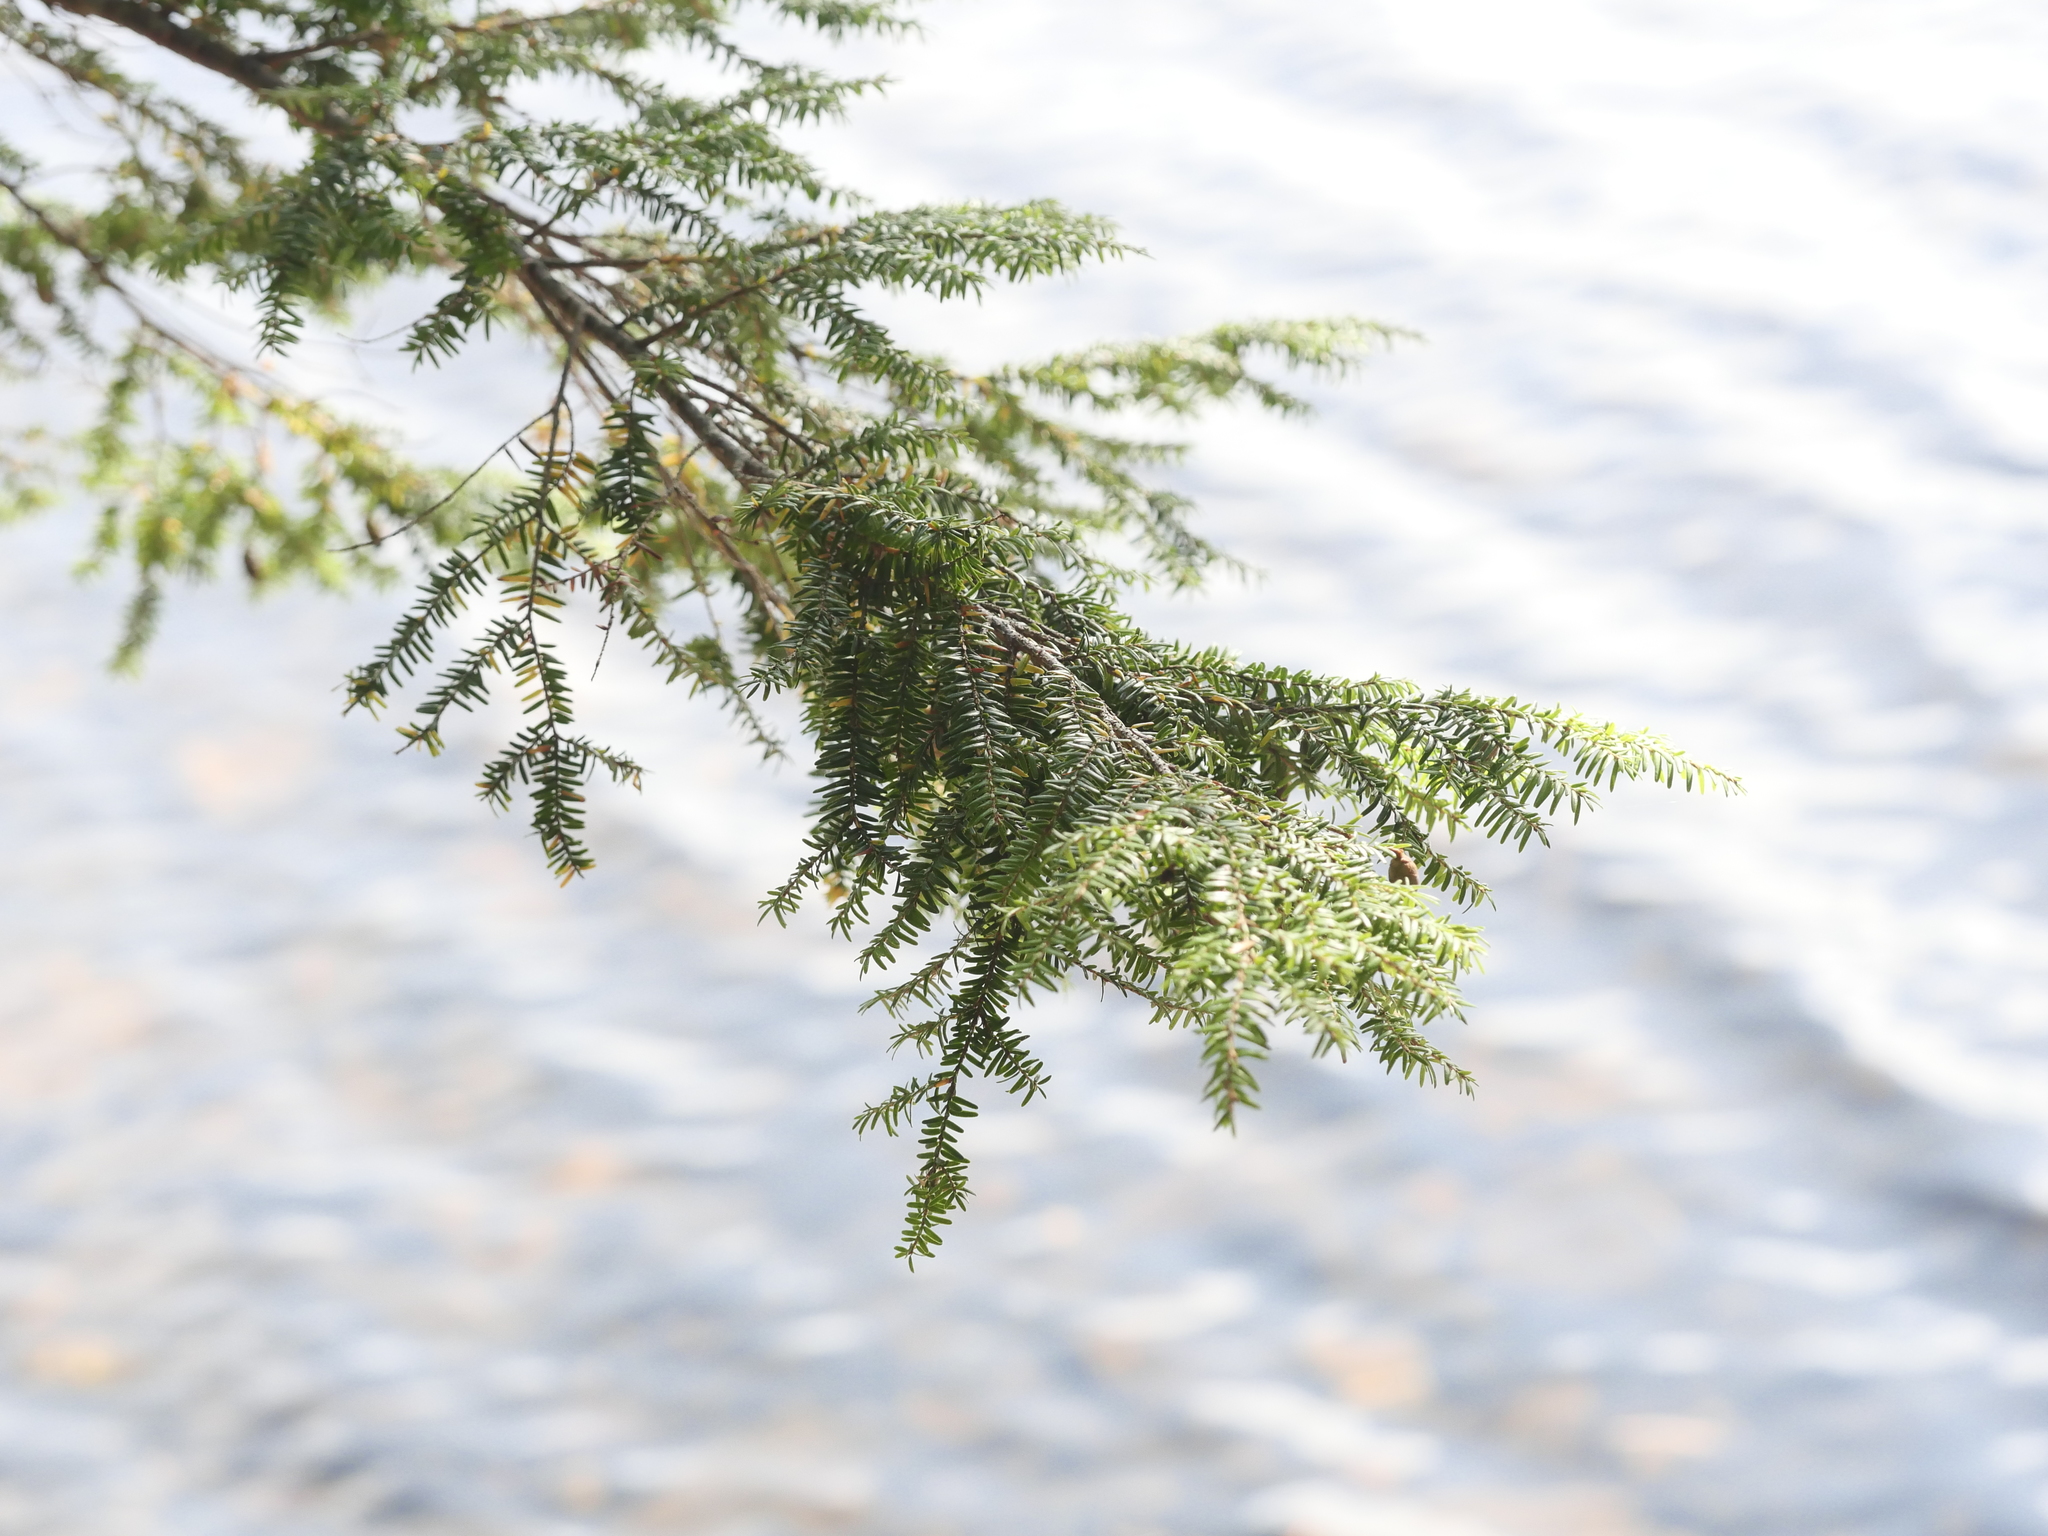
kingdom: Plantae
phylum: Tracheophyta
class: Pinopsida
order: Pinales
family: Pinaceae
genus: Tsuga
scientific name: Tsuga canadensis
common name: Eastern hemlock
